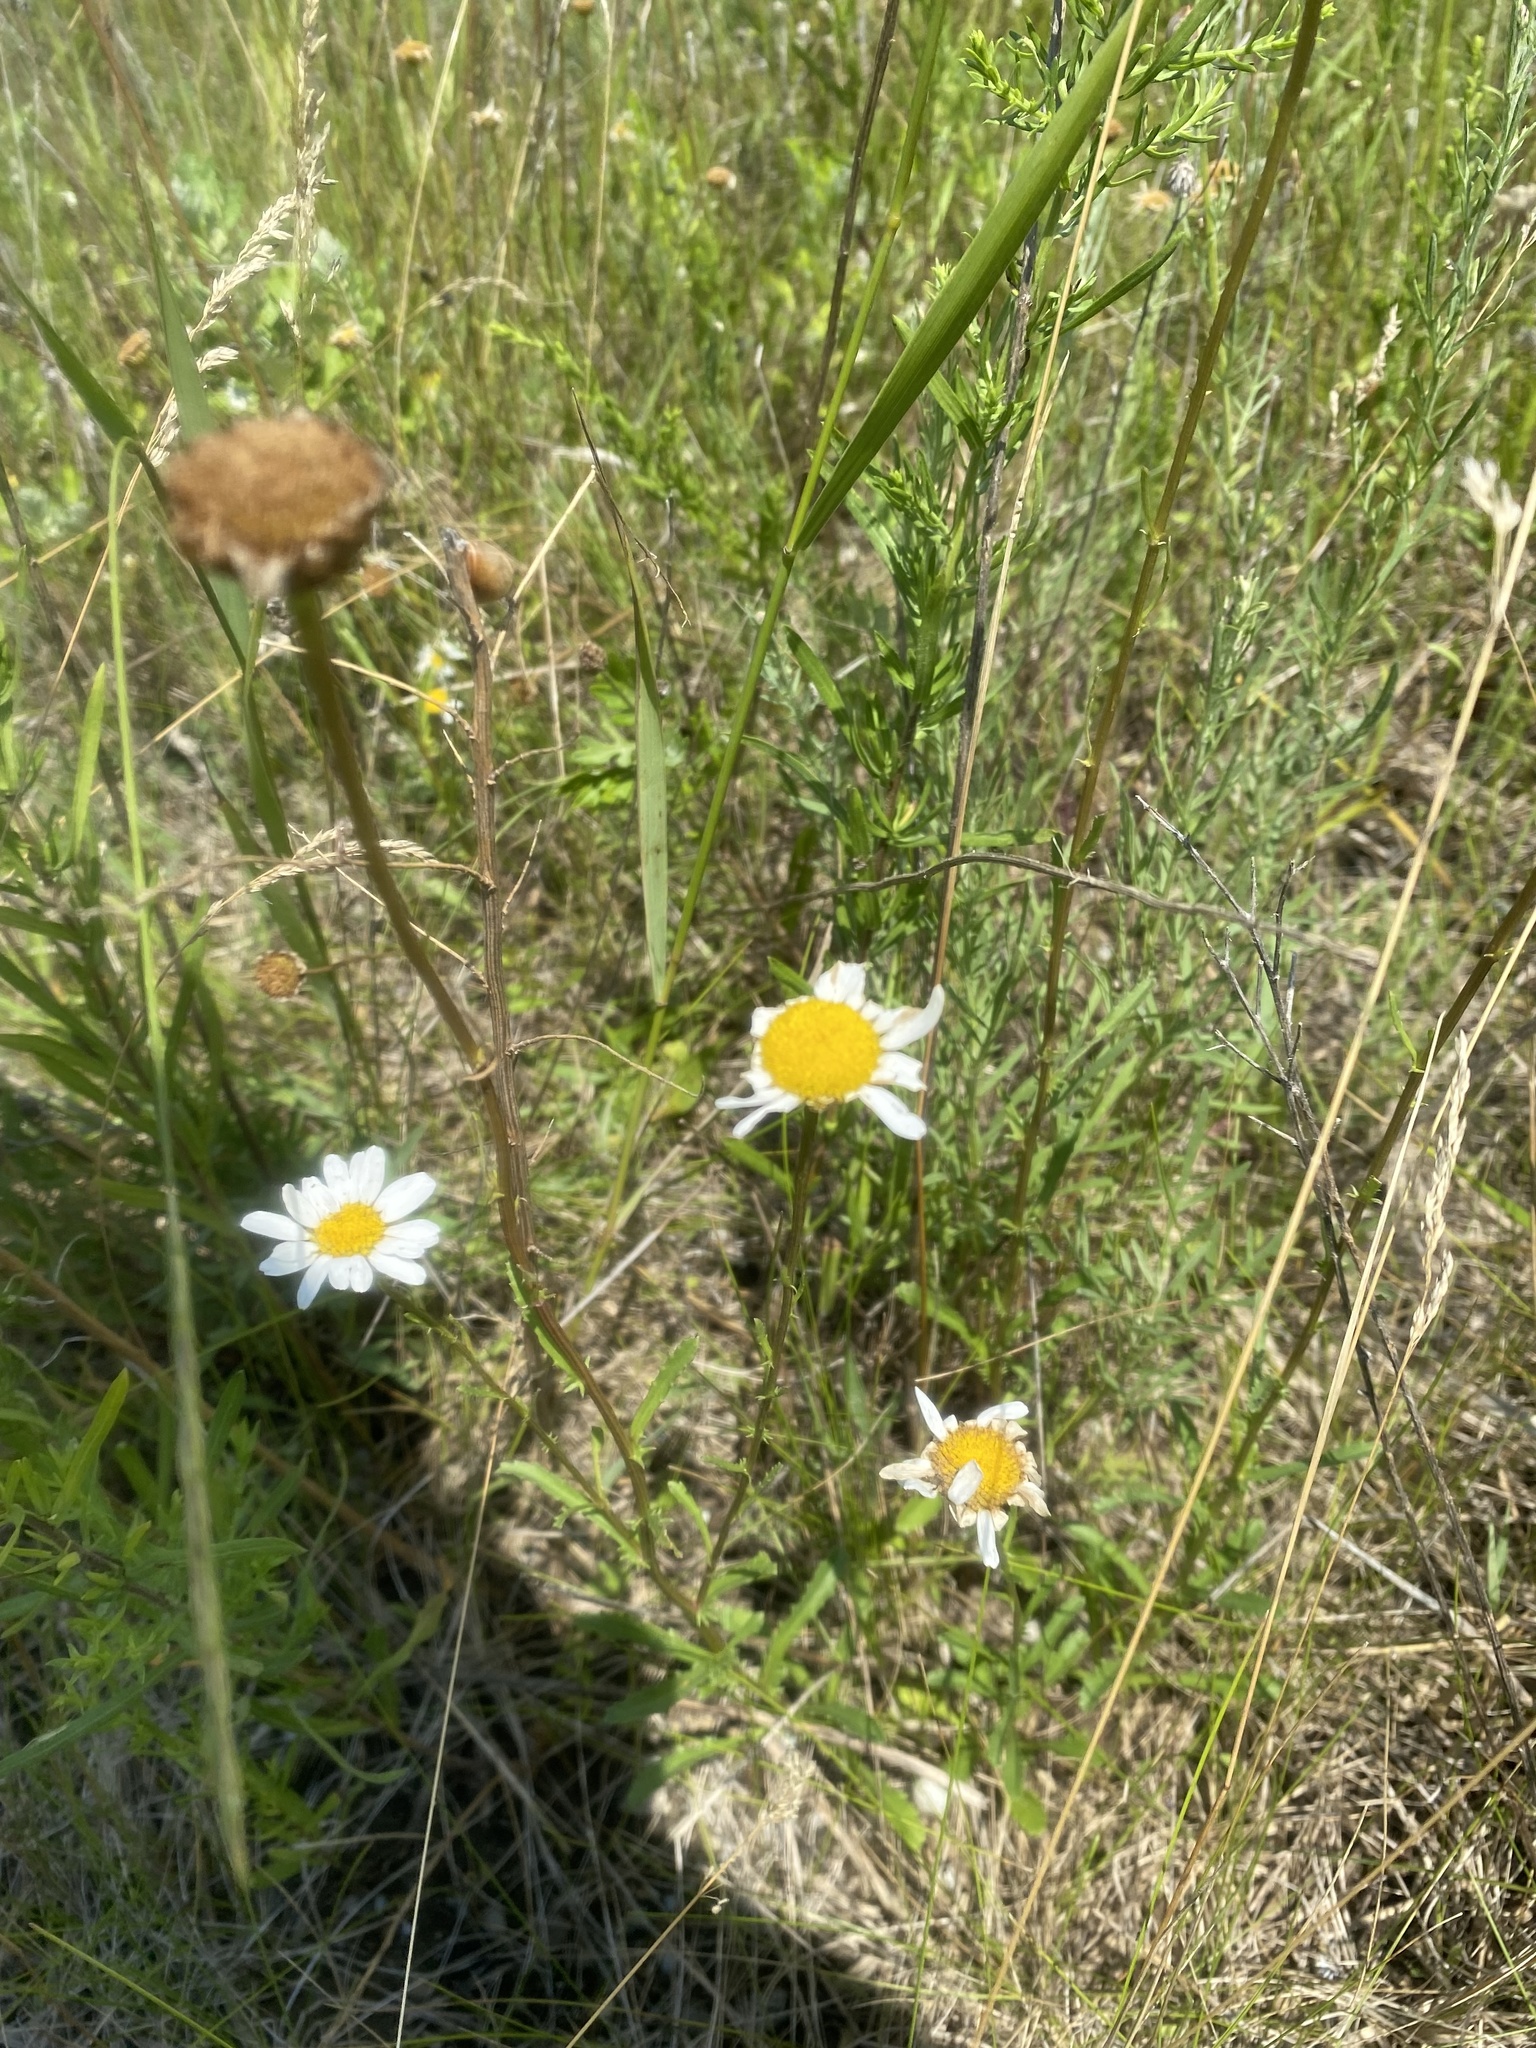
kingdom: Plantae
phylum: Tracheophyta
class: Magnoliopsida
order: Asterales
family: Asteraceae
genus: Leucanthemum
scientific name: Leucanthemum vulgare
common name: Oxeye daisy
